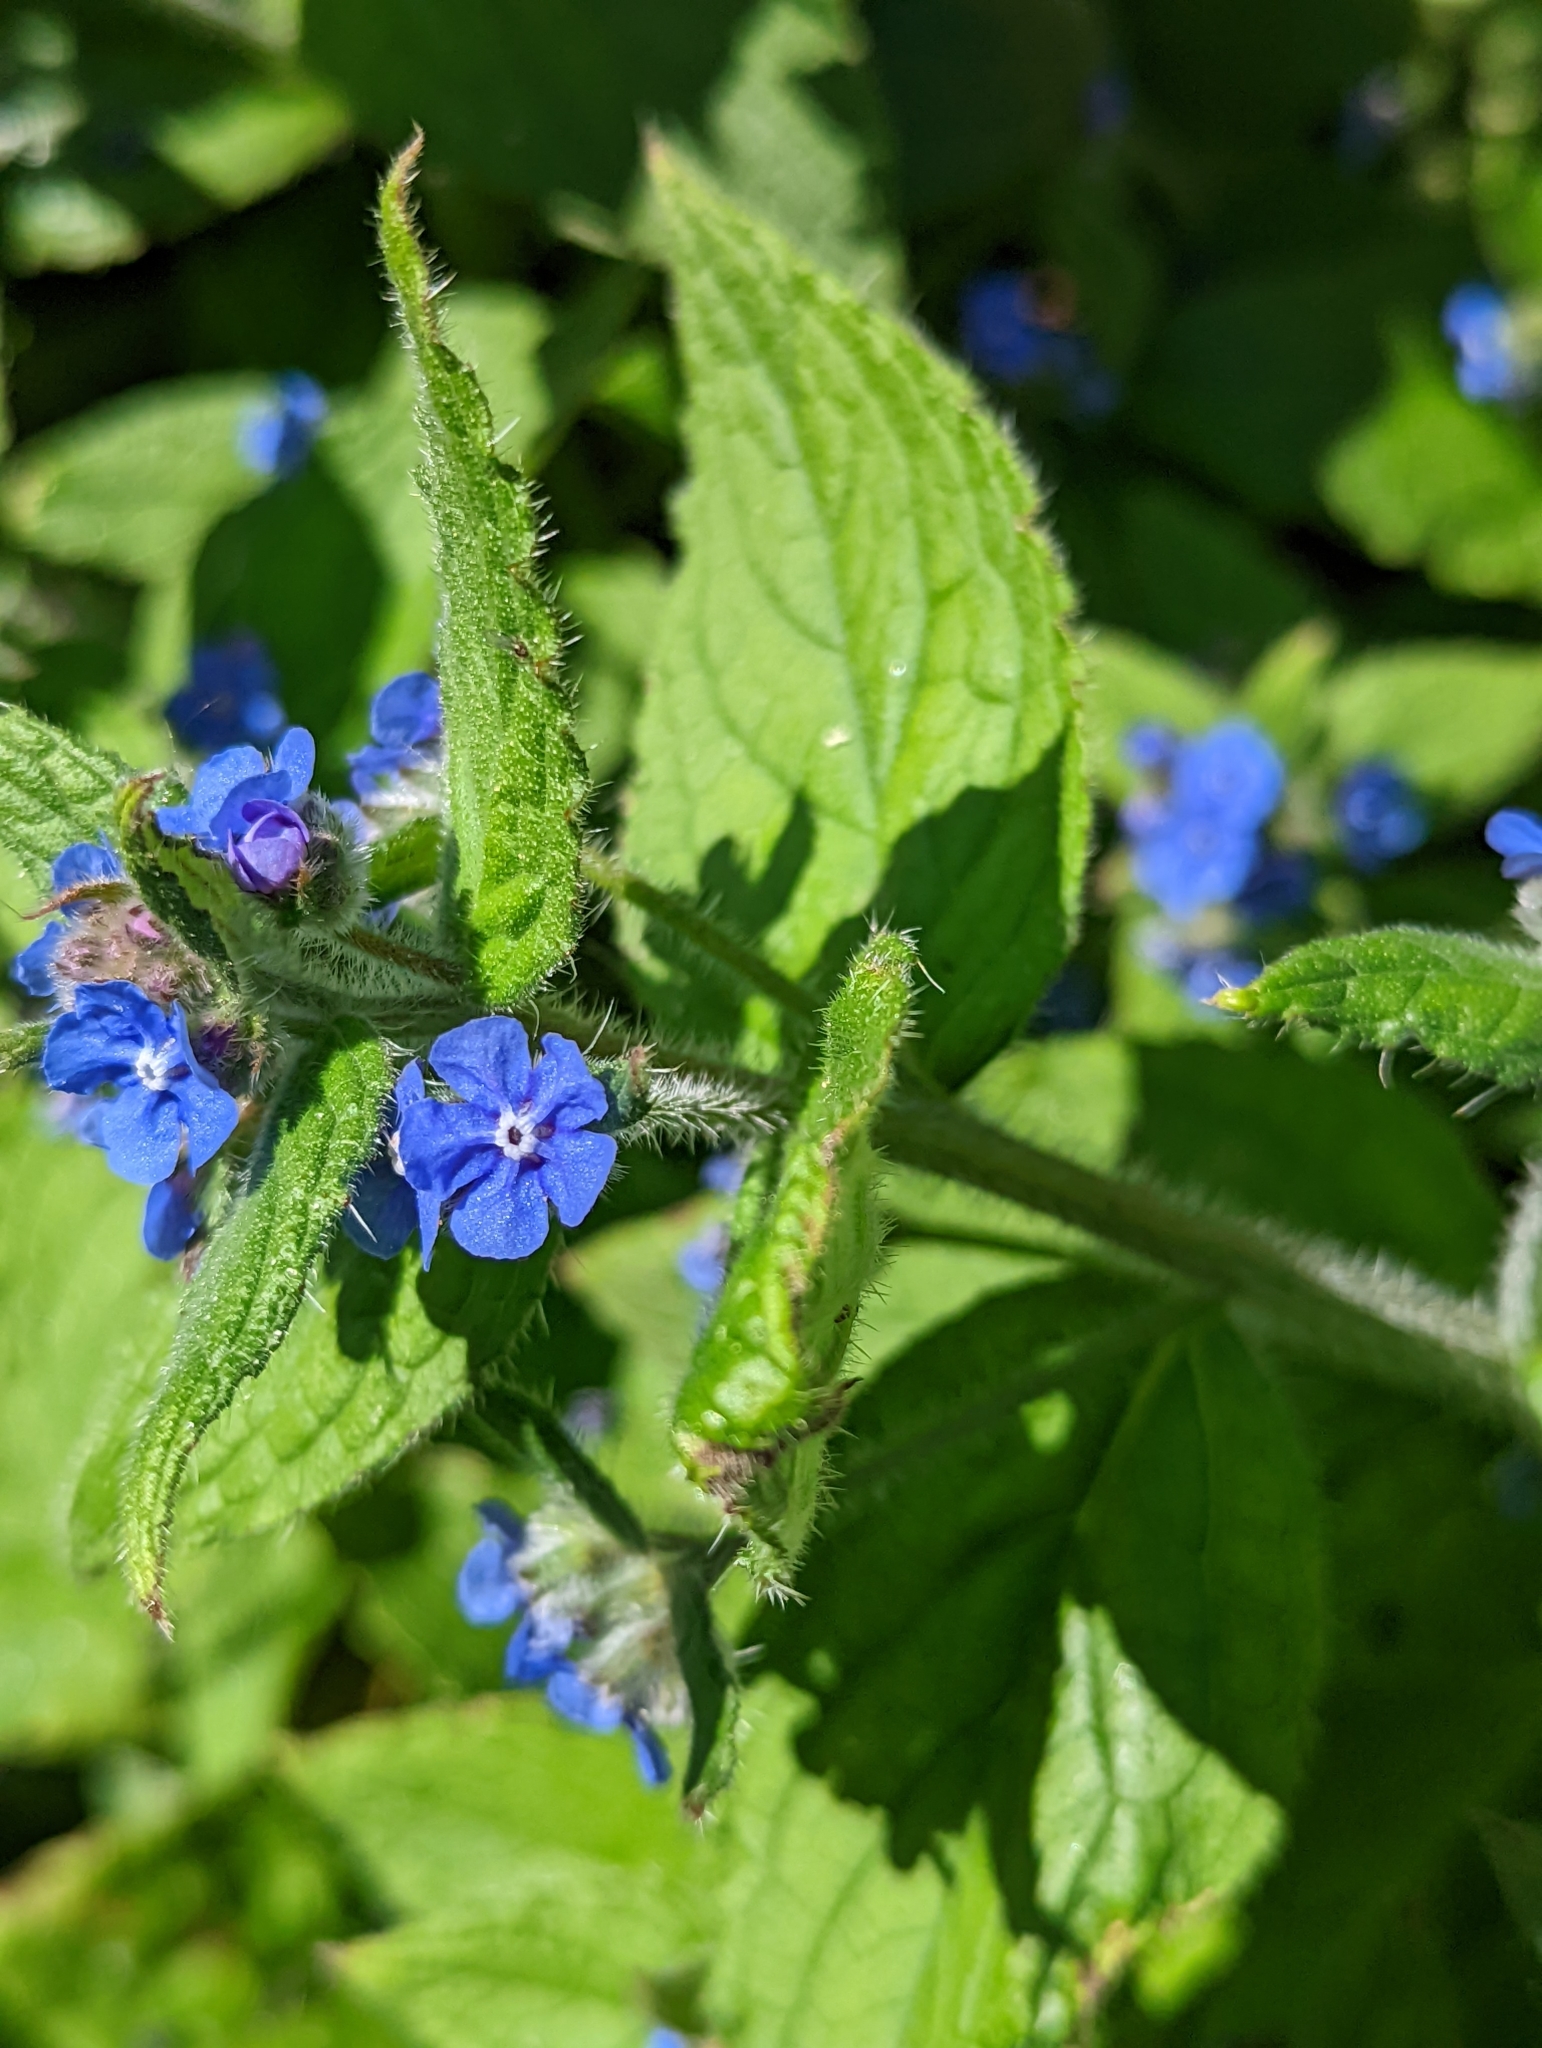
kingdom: Plantae
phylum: Tracheophyta
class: Magnoliopsida
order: Boraginales
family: Boraginaceae
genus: Pentaglottis
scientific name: Pentaglottis sempervirens
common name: Green alkanet
